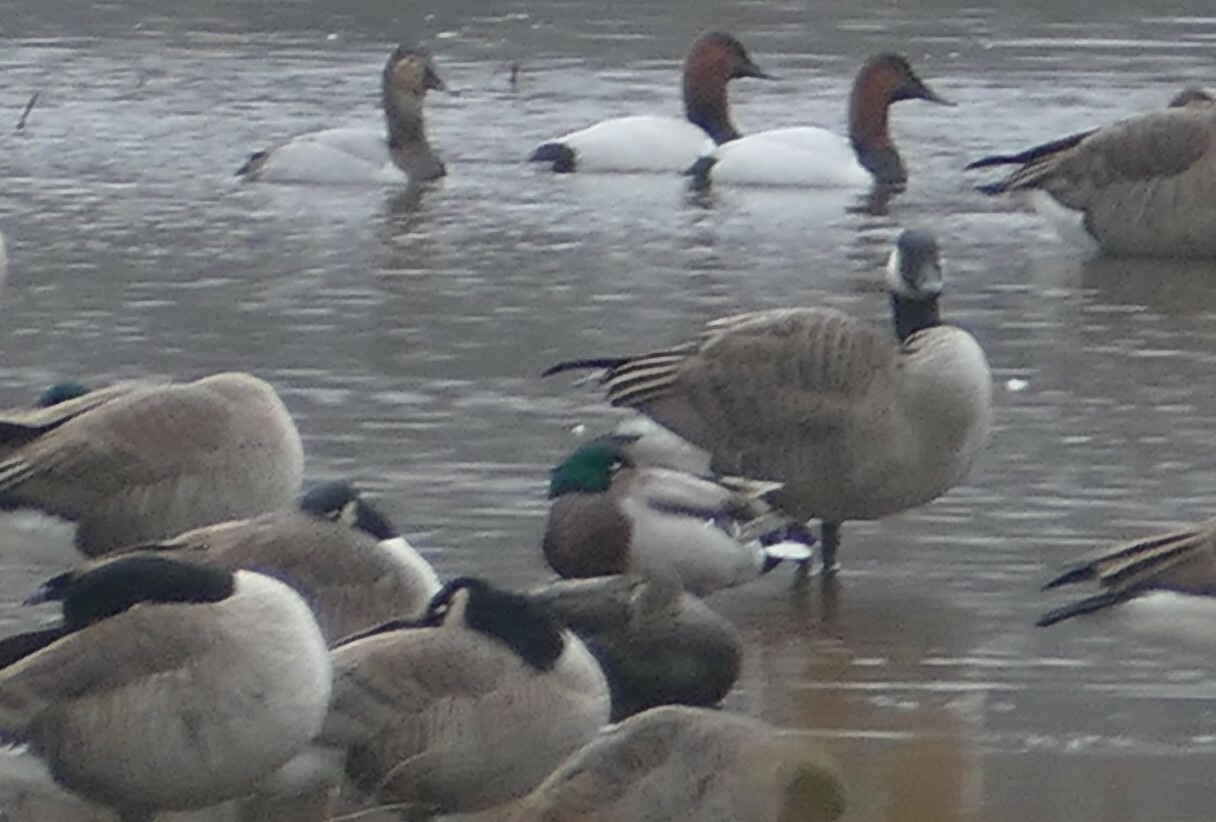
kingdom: Animalia
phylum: Chordata
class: Aves
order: Anseriformes
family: Anatidae
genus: Anas
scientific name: Anas platyrhynchos
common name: Mallard
